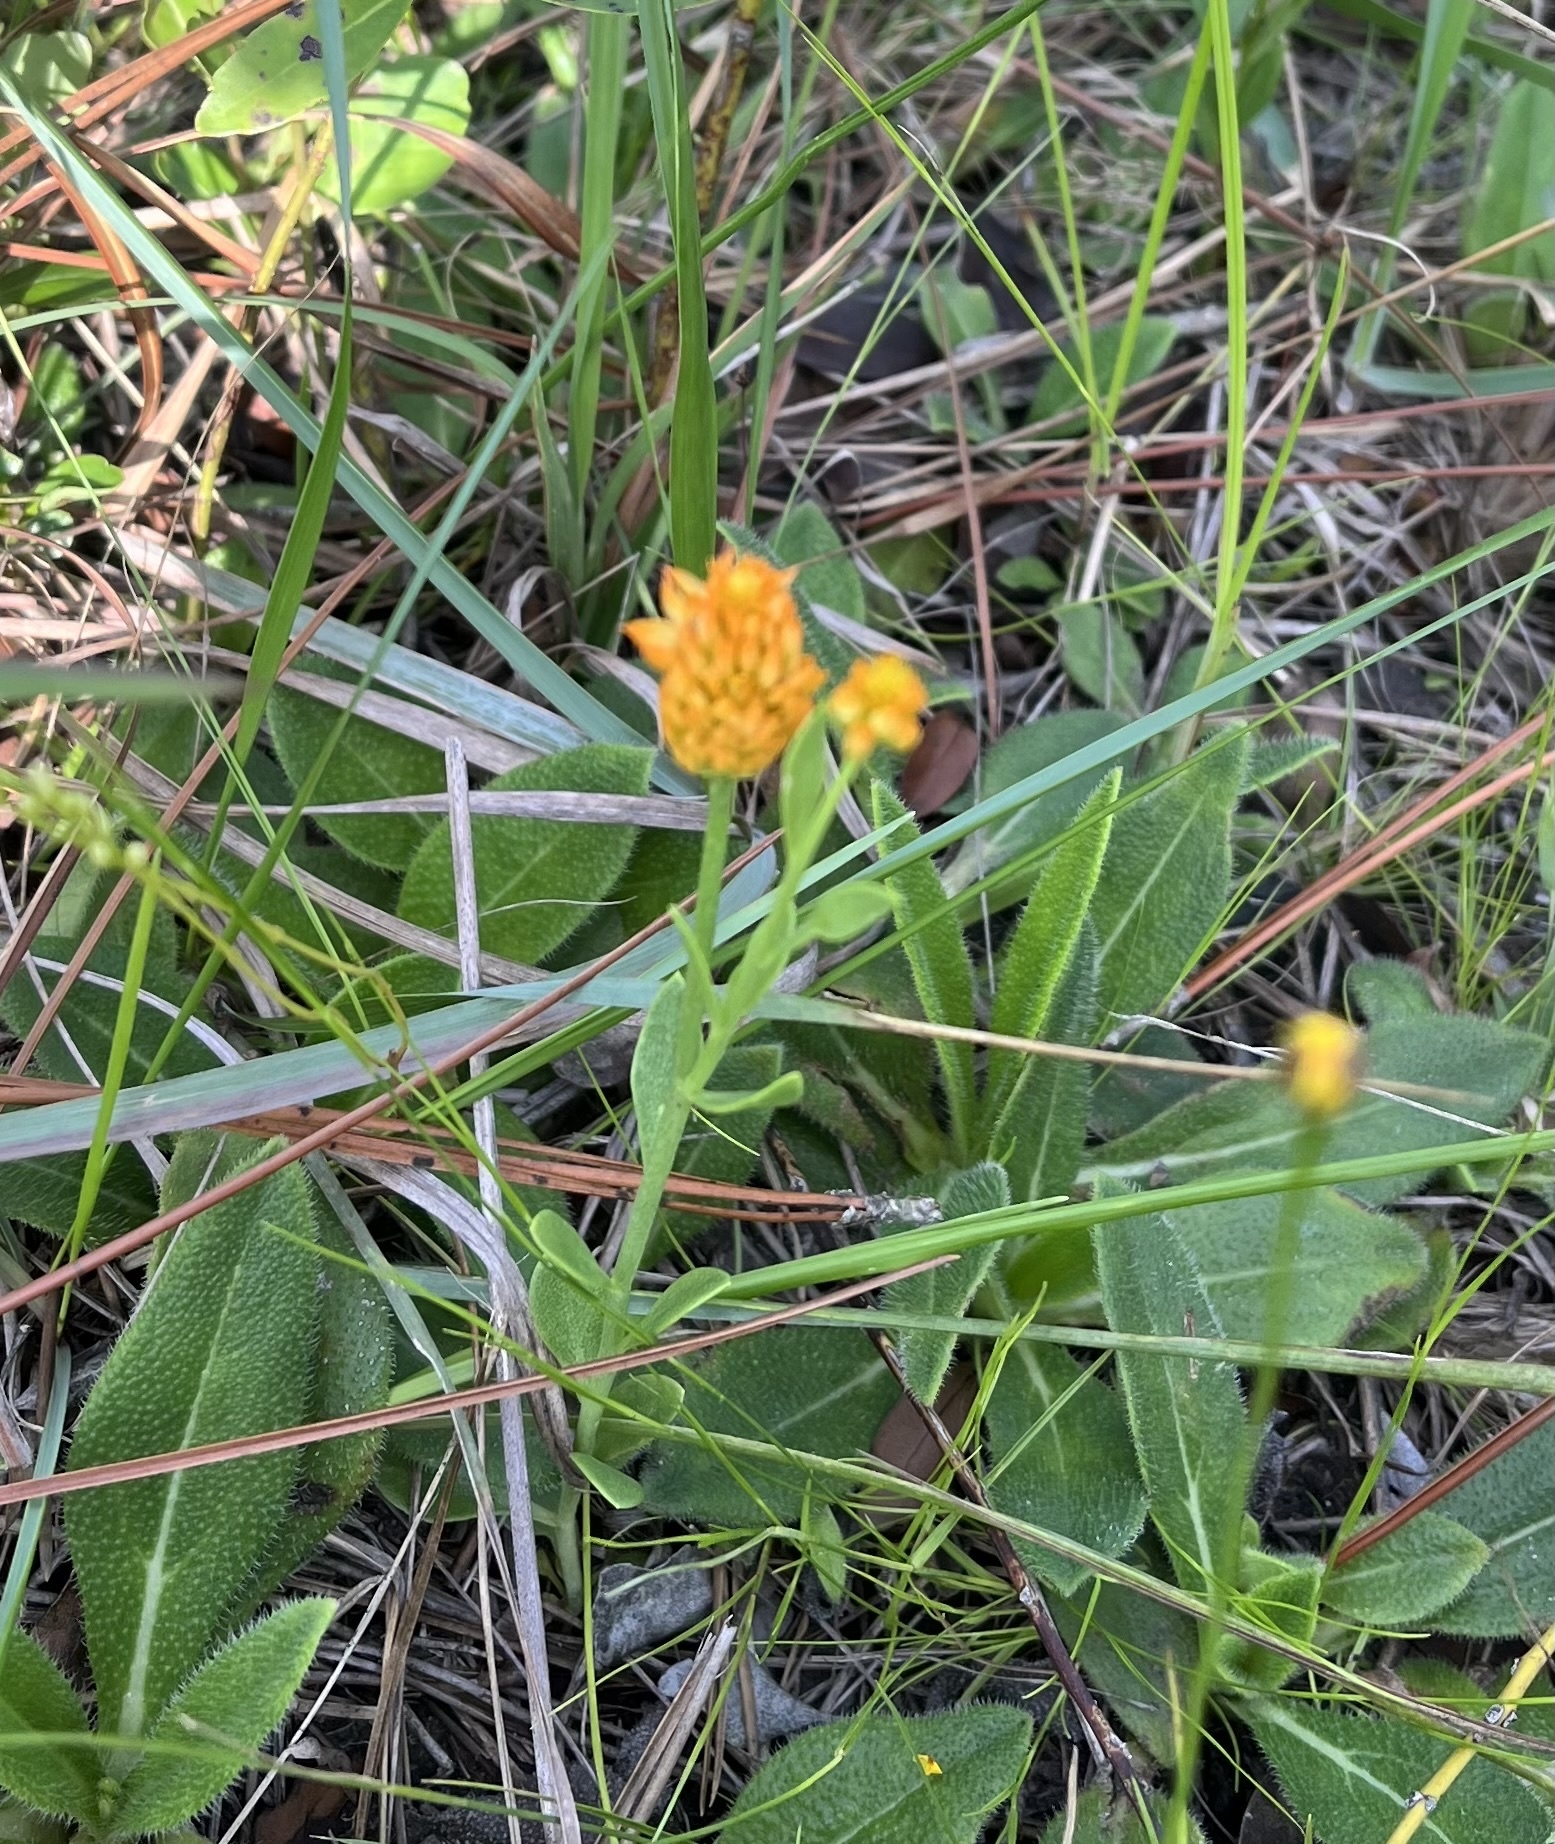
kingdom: Plantae
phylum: Tracheophyta
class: Magnoliopsida
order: Fabales
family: Polygalaceae
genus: Polygala
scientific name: Polygala lutea
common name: Orange milkwort
